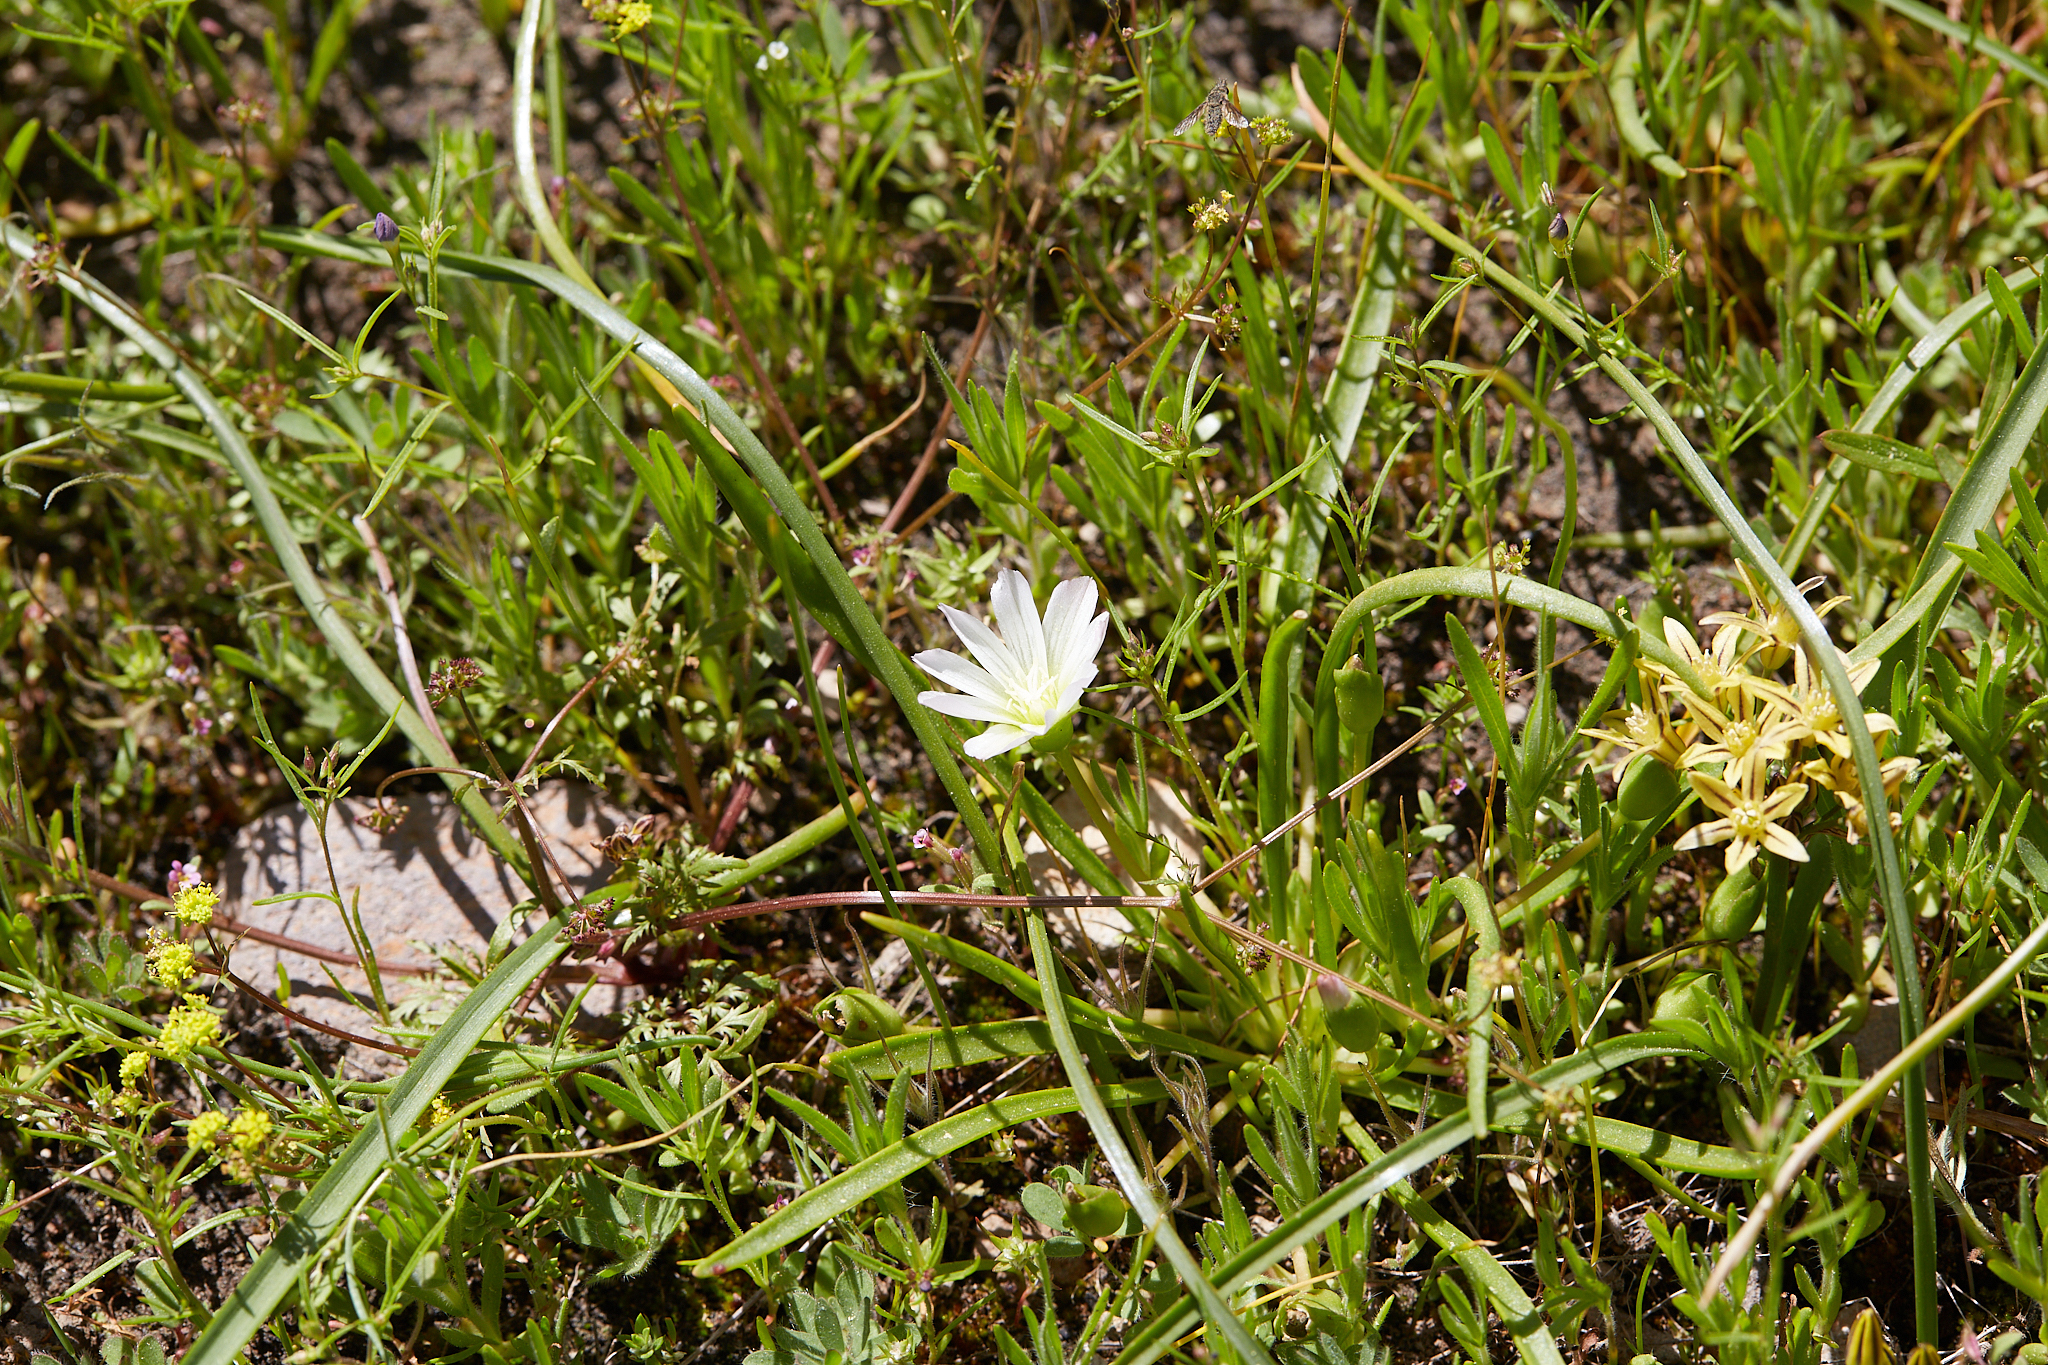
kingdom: Plantae
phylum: Tracheophyta
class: Magnoliopsida
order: Caryophyllales
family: Montiaceae
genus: Lewisia
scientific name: Lewisia nevadensis
